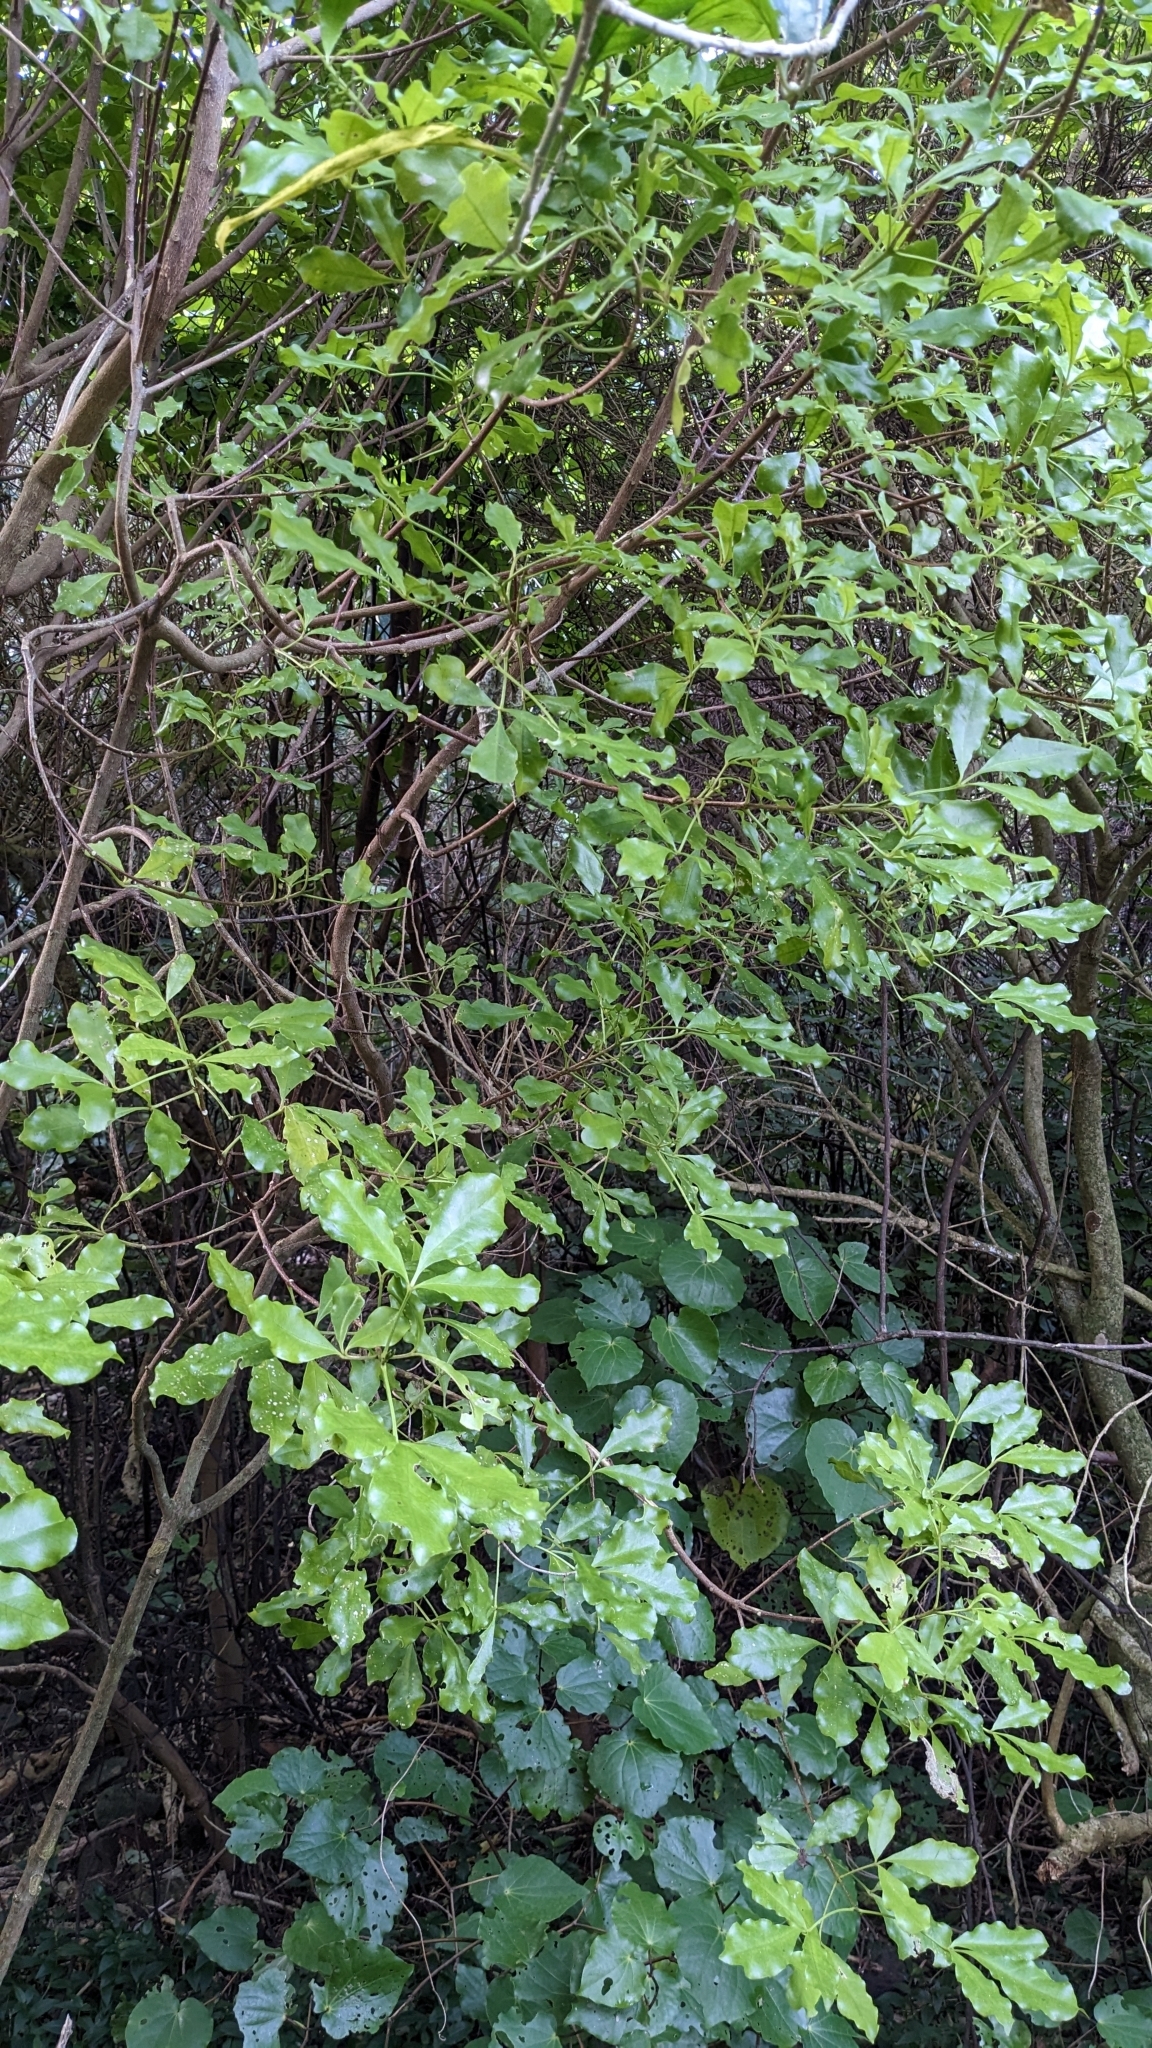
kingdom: Plantae
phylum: Tracheophyta
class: Magnoliopsida
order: Sapindales
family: Rutaceae
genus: Melicope
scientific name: Melicope ternata
